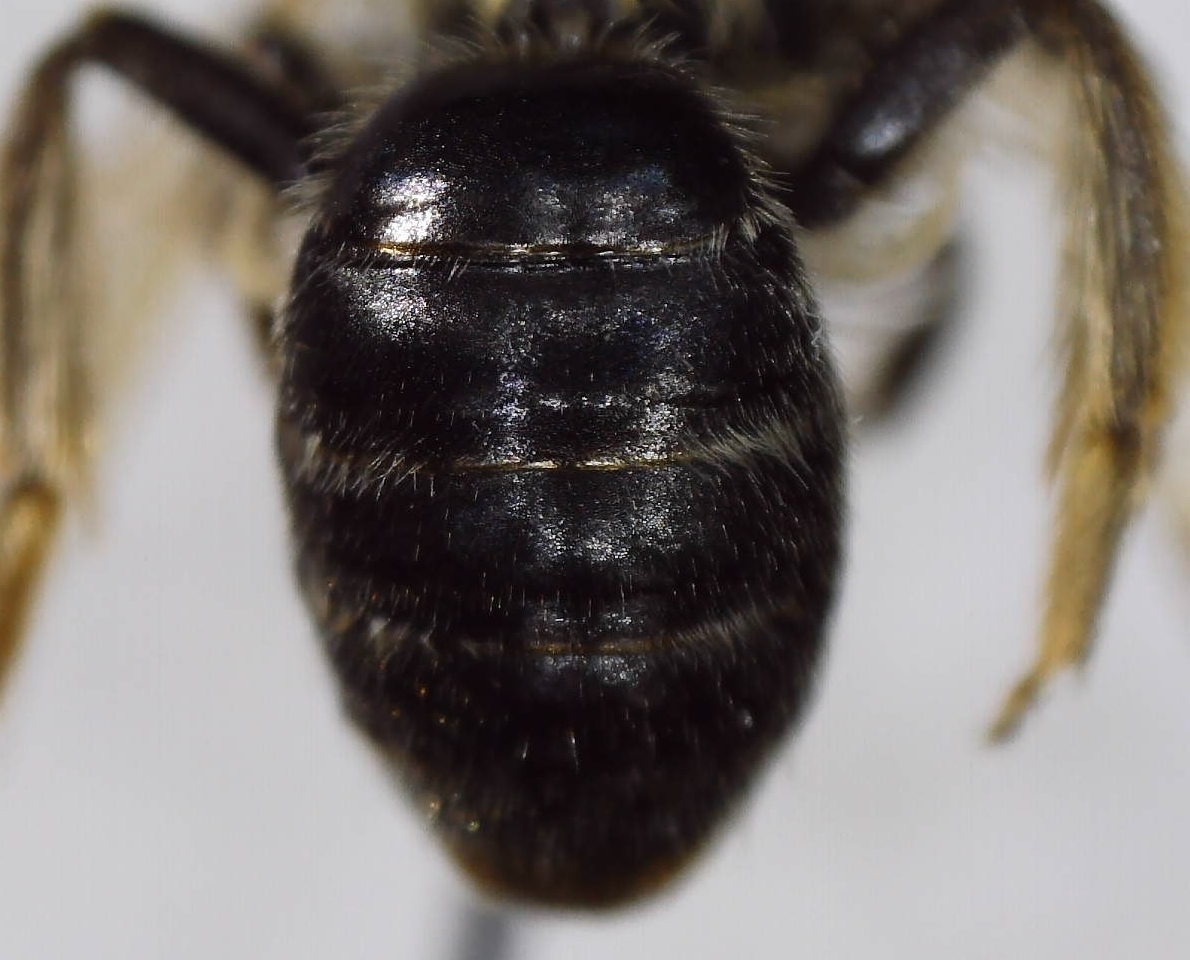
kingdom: Animalia
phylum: Arthropoda
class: Insecta
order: Hymenoptera
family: Andrenidae
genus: Andrena
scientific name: Andrena
